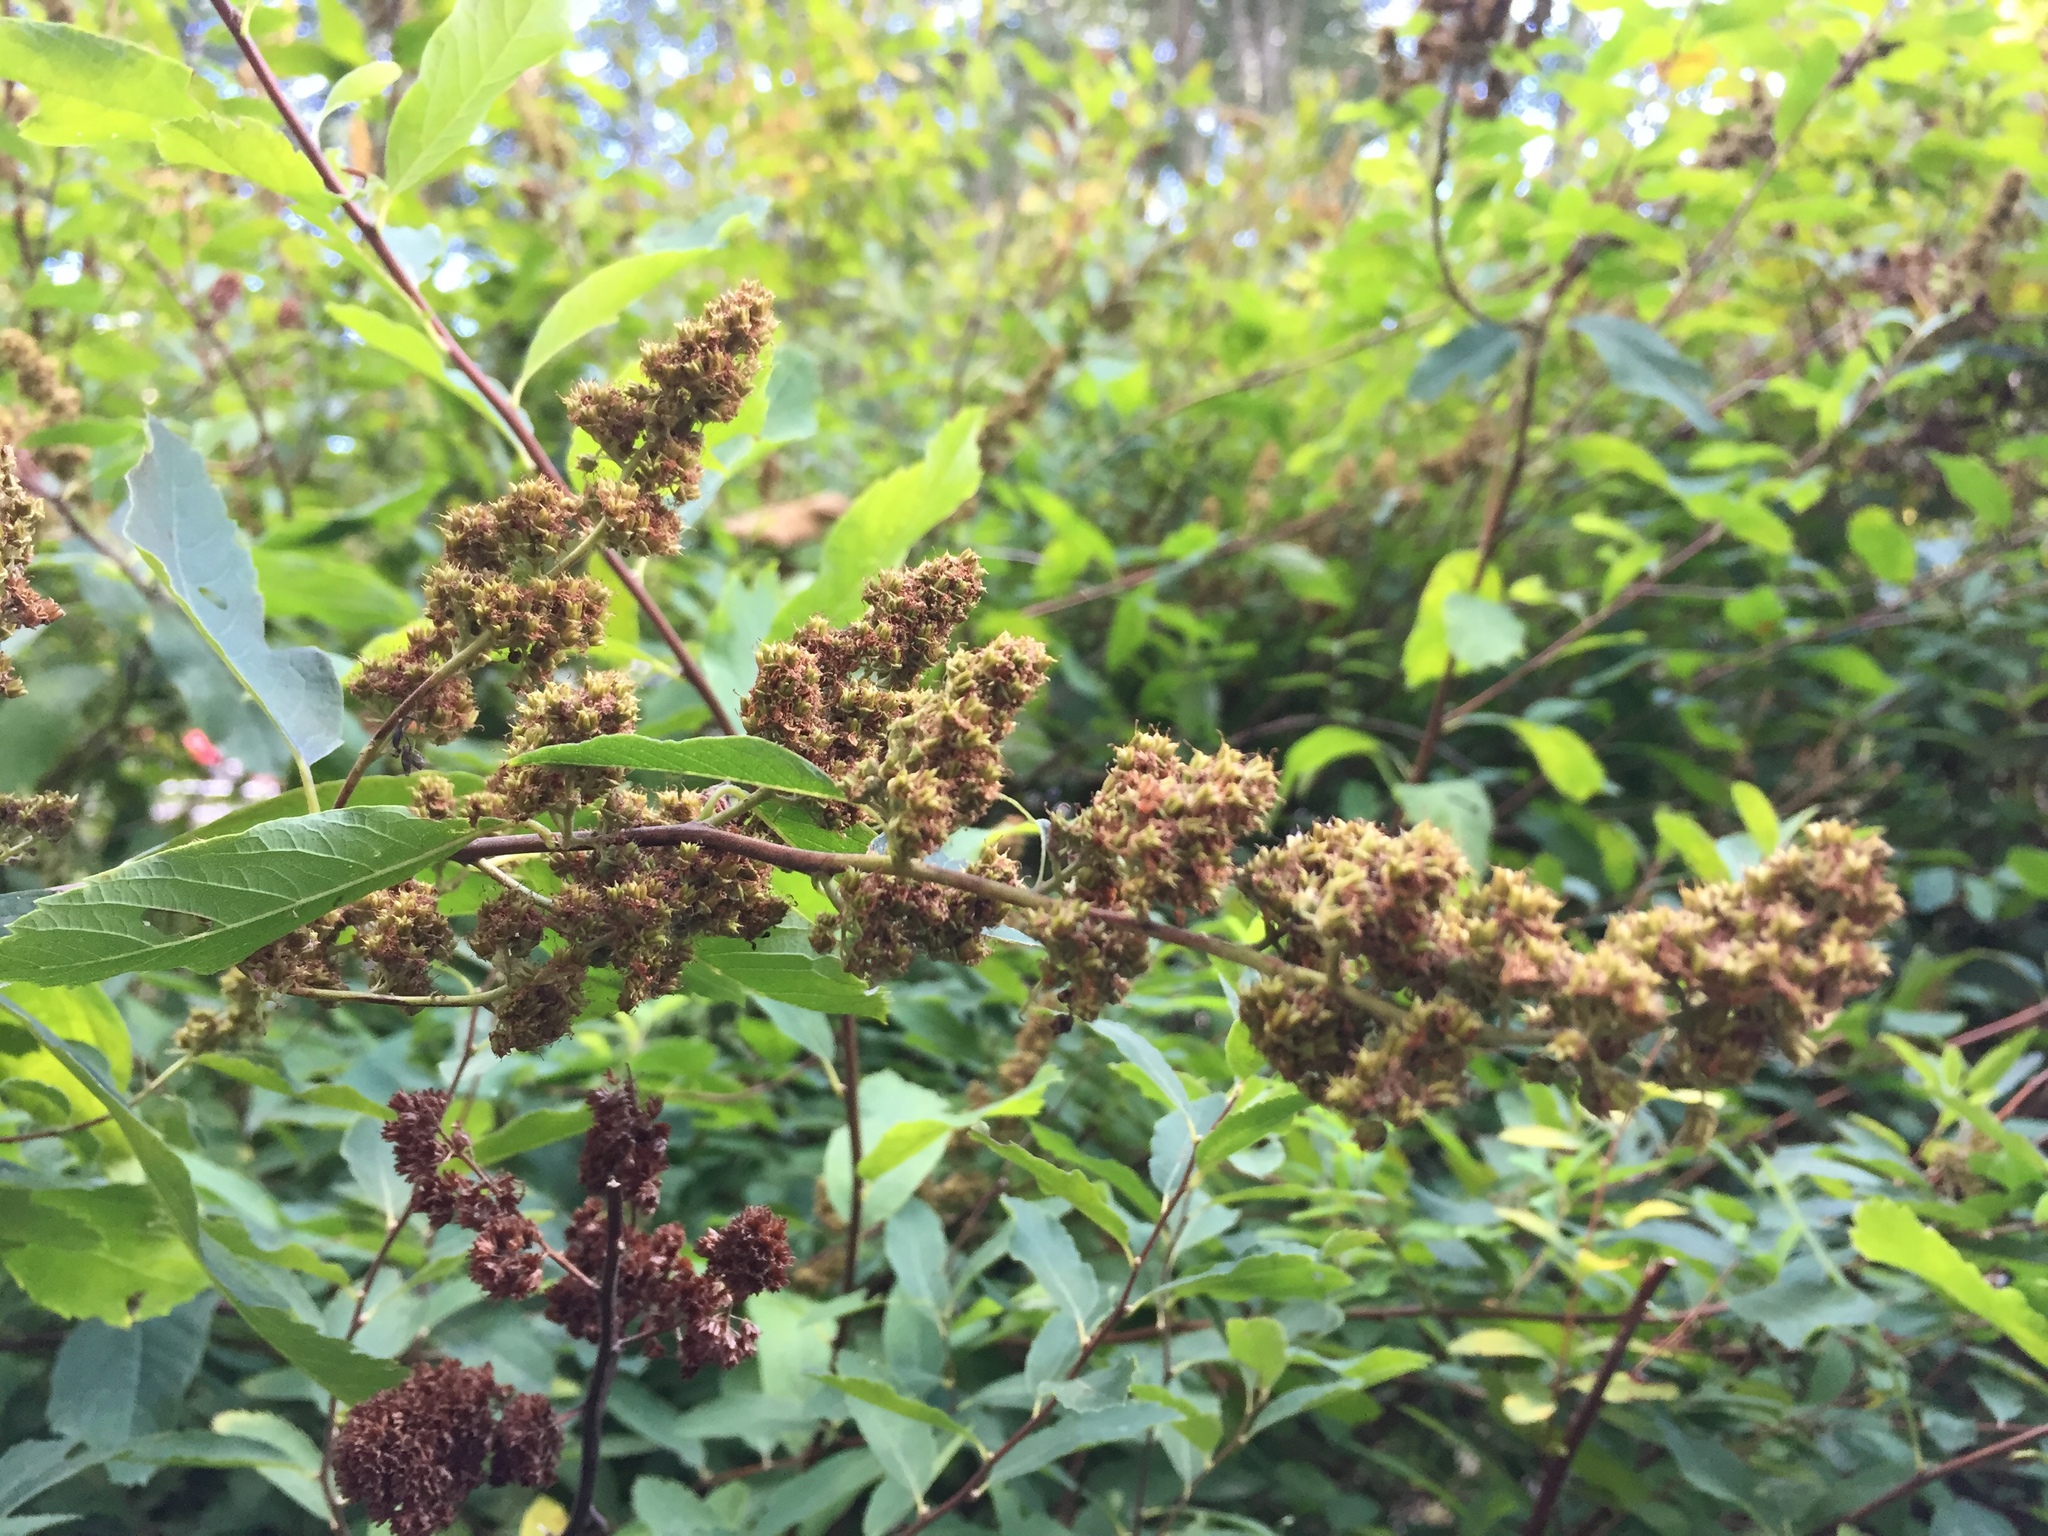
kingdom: Plantae
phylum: Tracheophyta
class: Magnoliopsida
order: Rosales
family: Rosaceae
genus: Spiraea
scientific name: Spiraea douglasii
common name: Steeplebush
